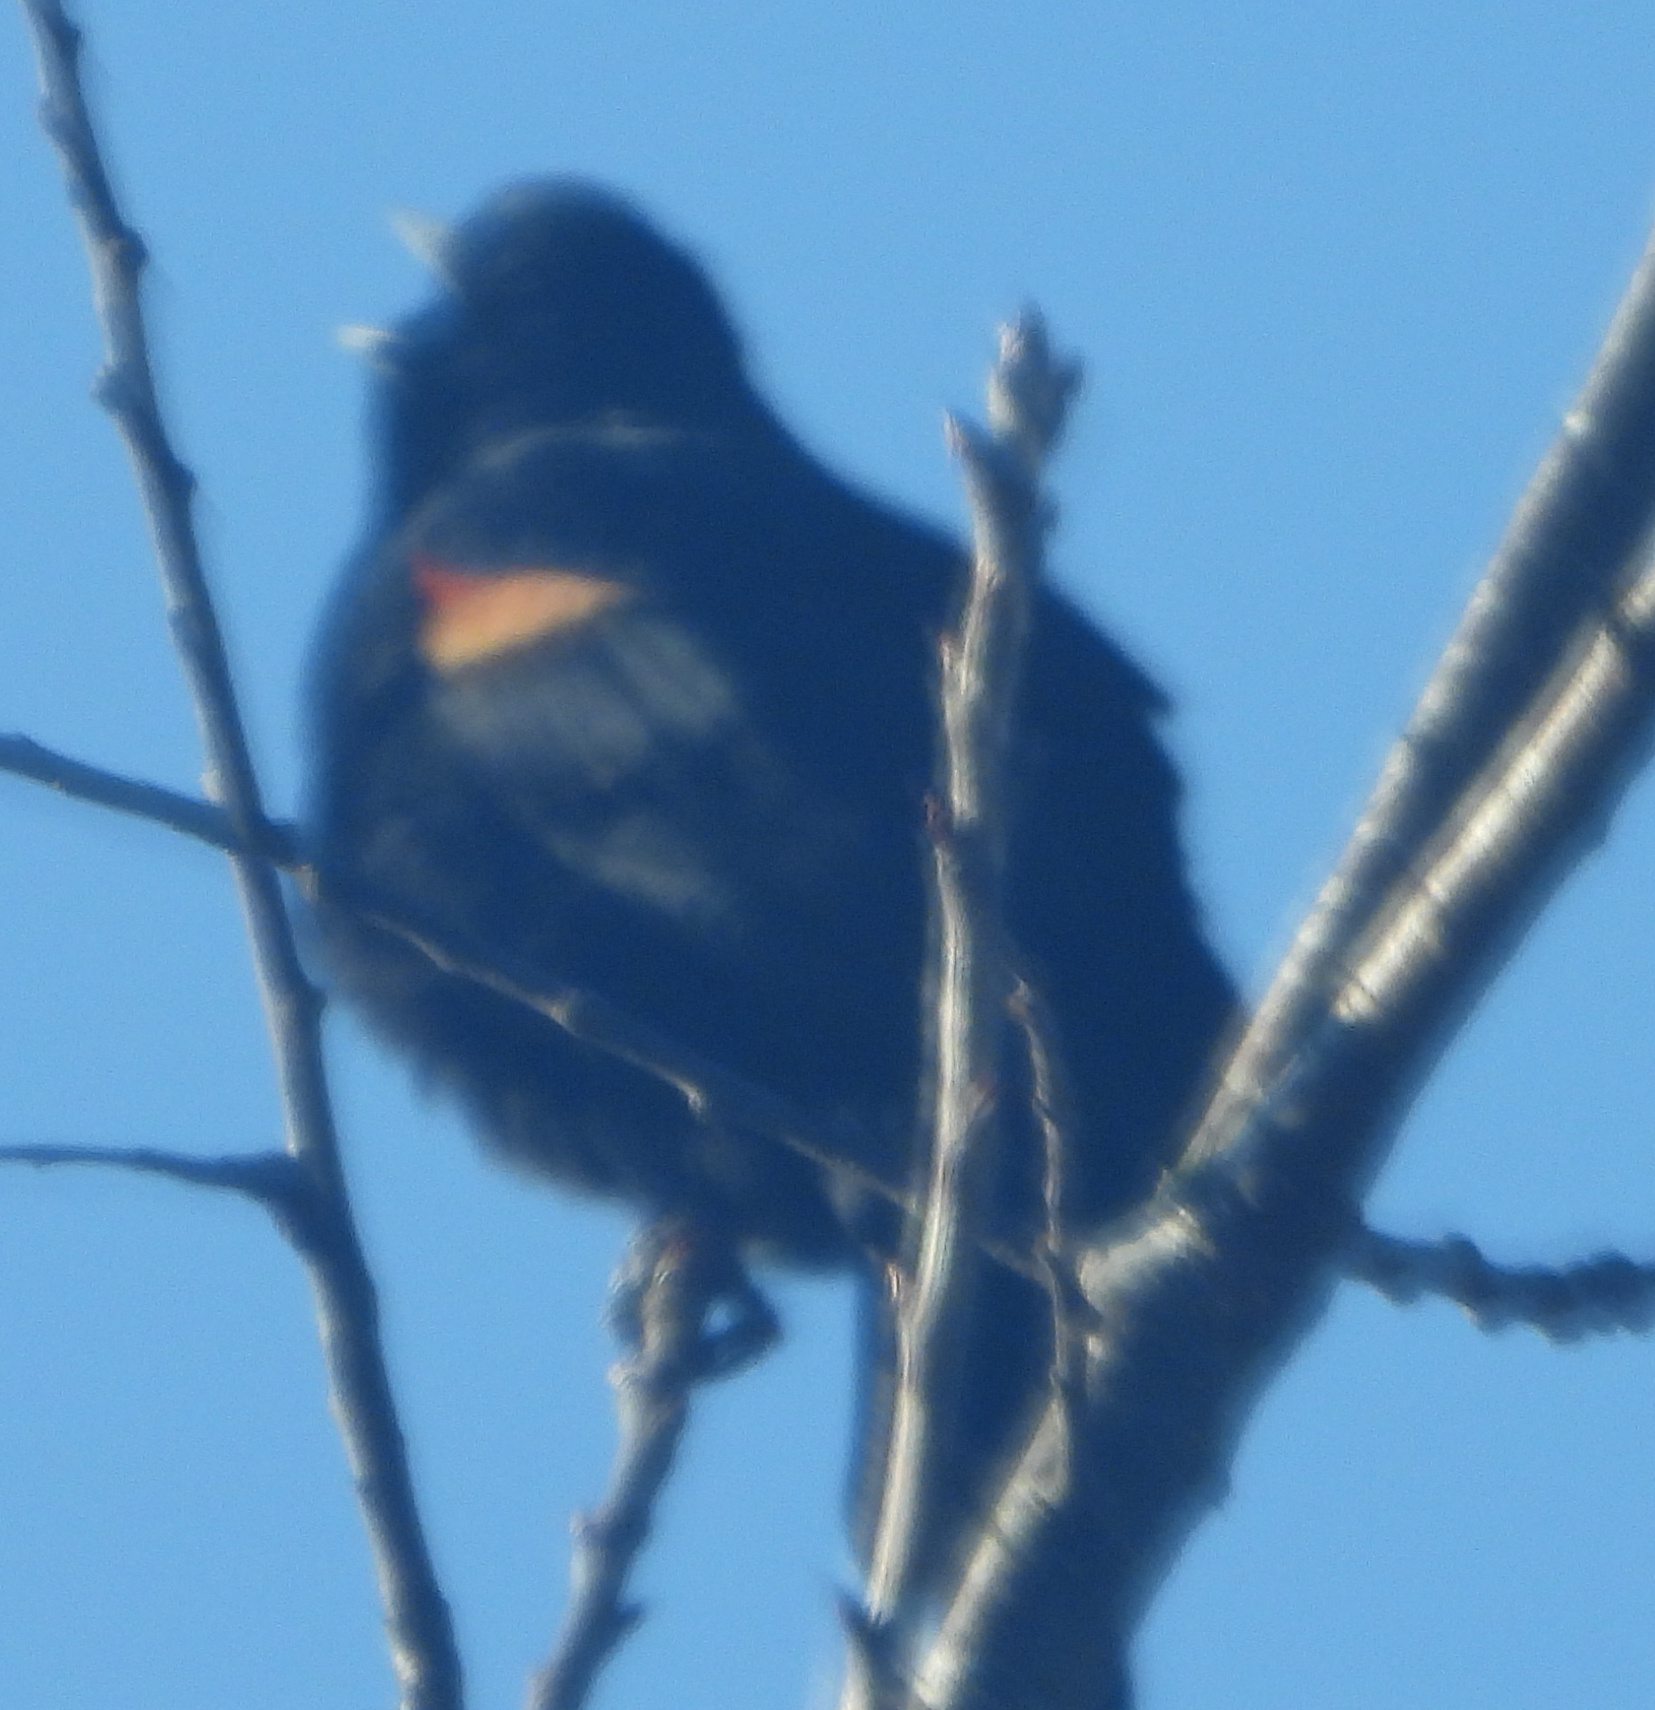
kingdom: Animalia
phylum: Chordata
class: Aves
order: Passeriformes
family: Icteridae
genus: Agelaius
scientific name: Agelaius phoeniceus
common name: Red-winged blackbird
